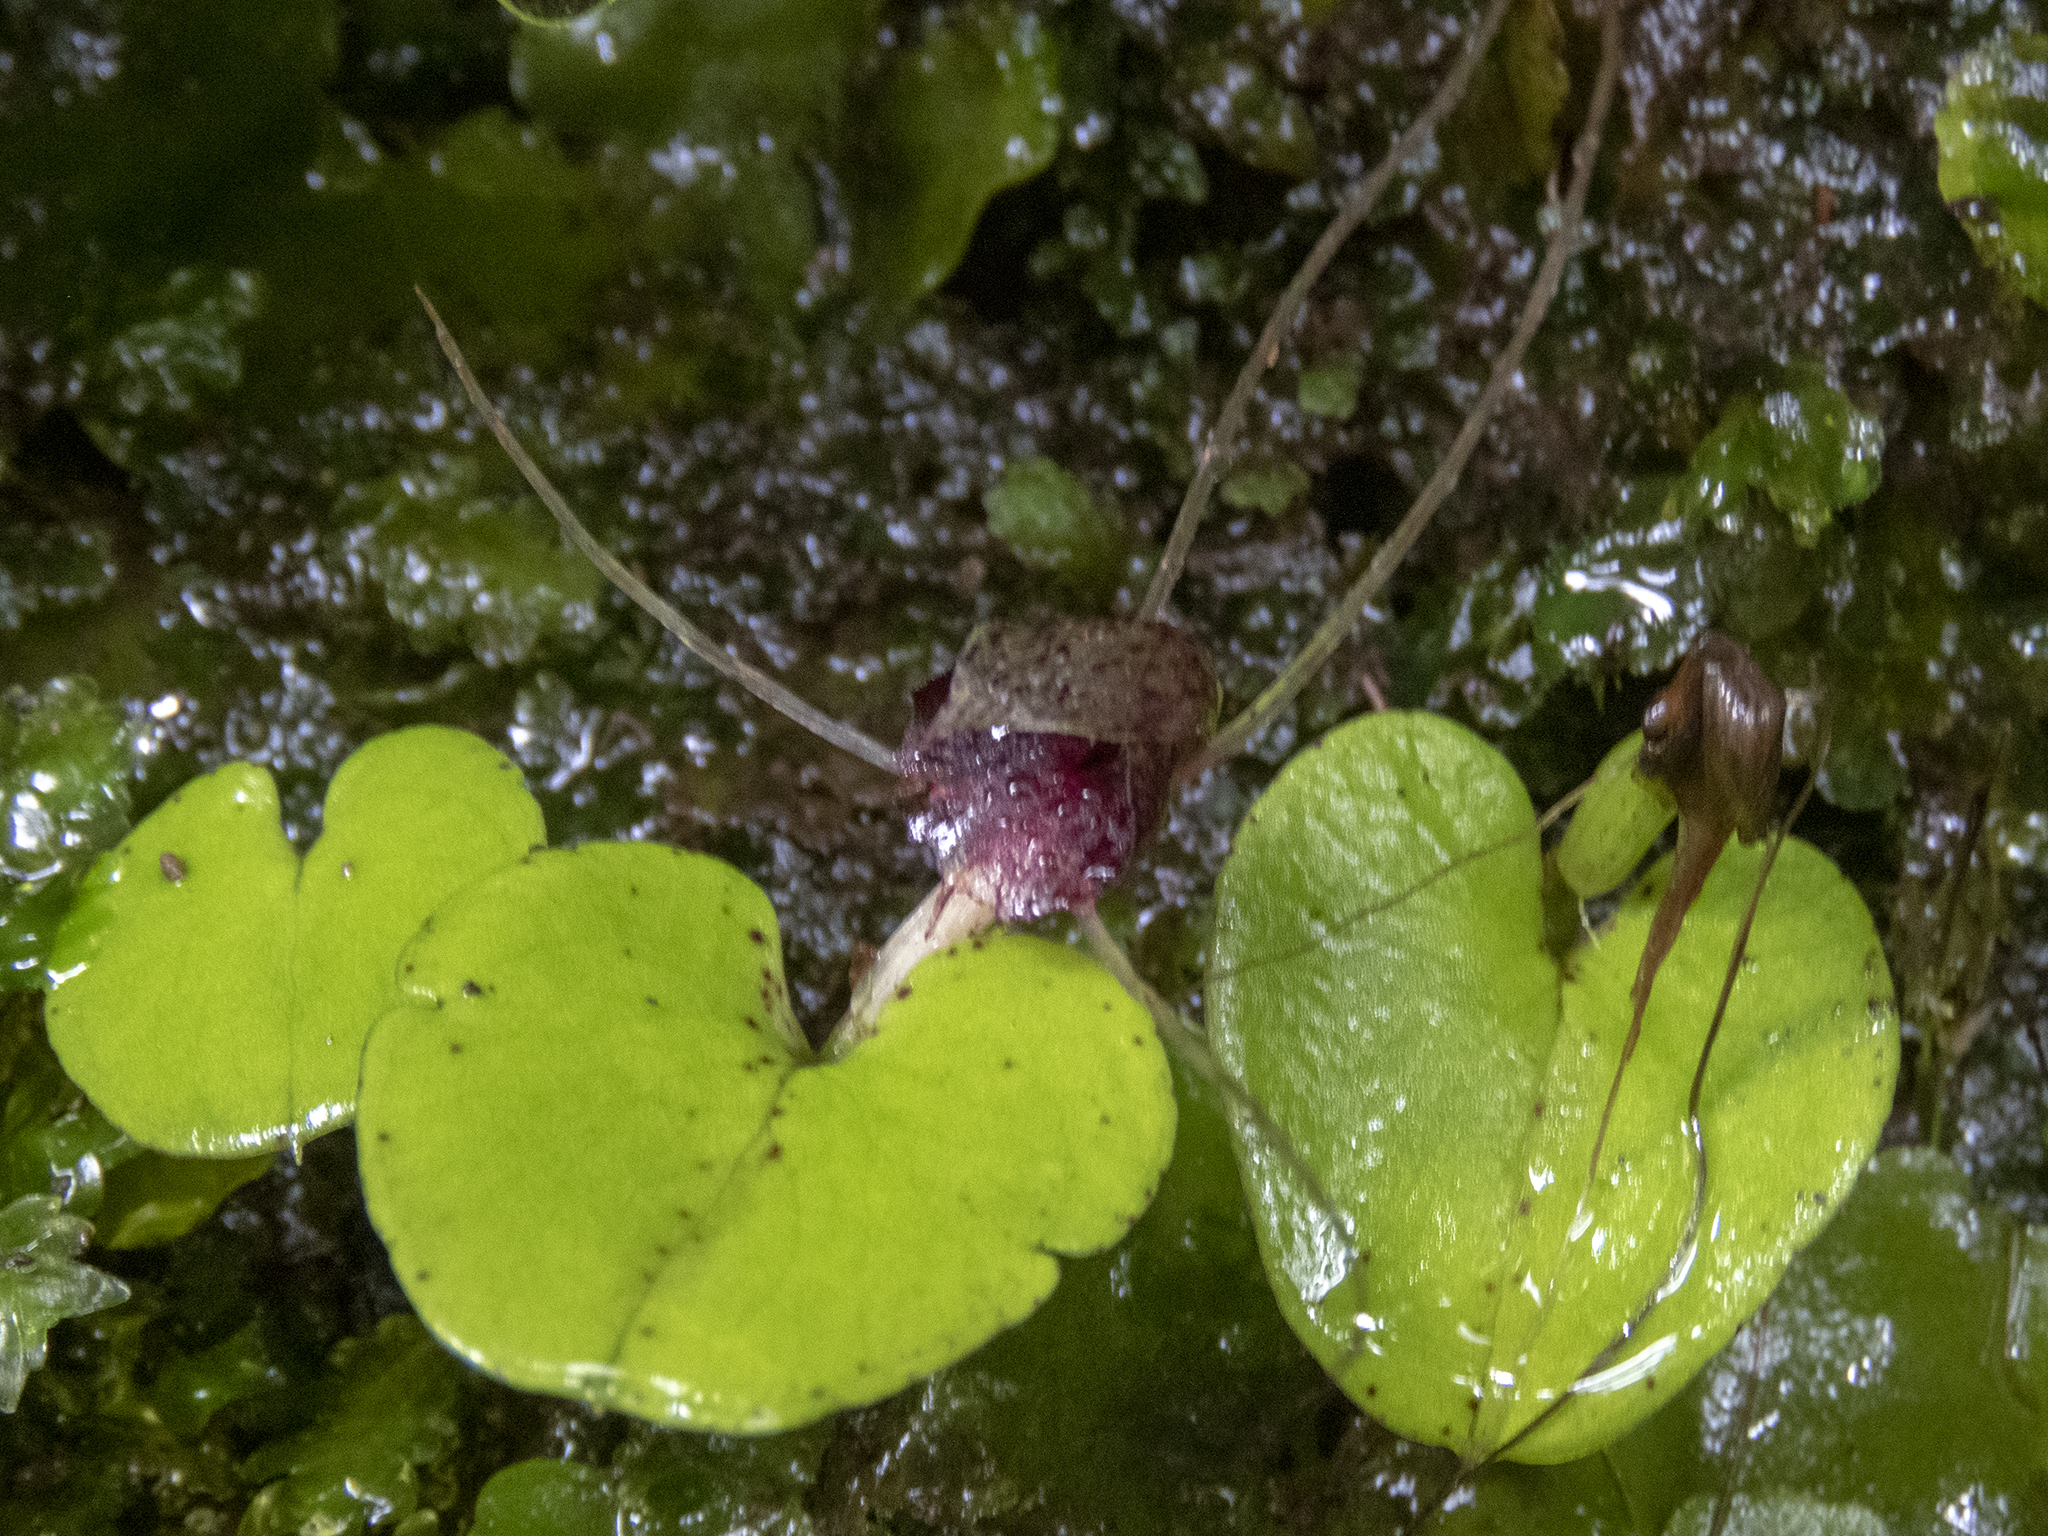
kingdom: Plantae
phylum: Tracheophyta
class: Liliopsida
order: Asparagales
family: Orchidaceae
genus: Corybas
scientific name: Corybas iridescens
